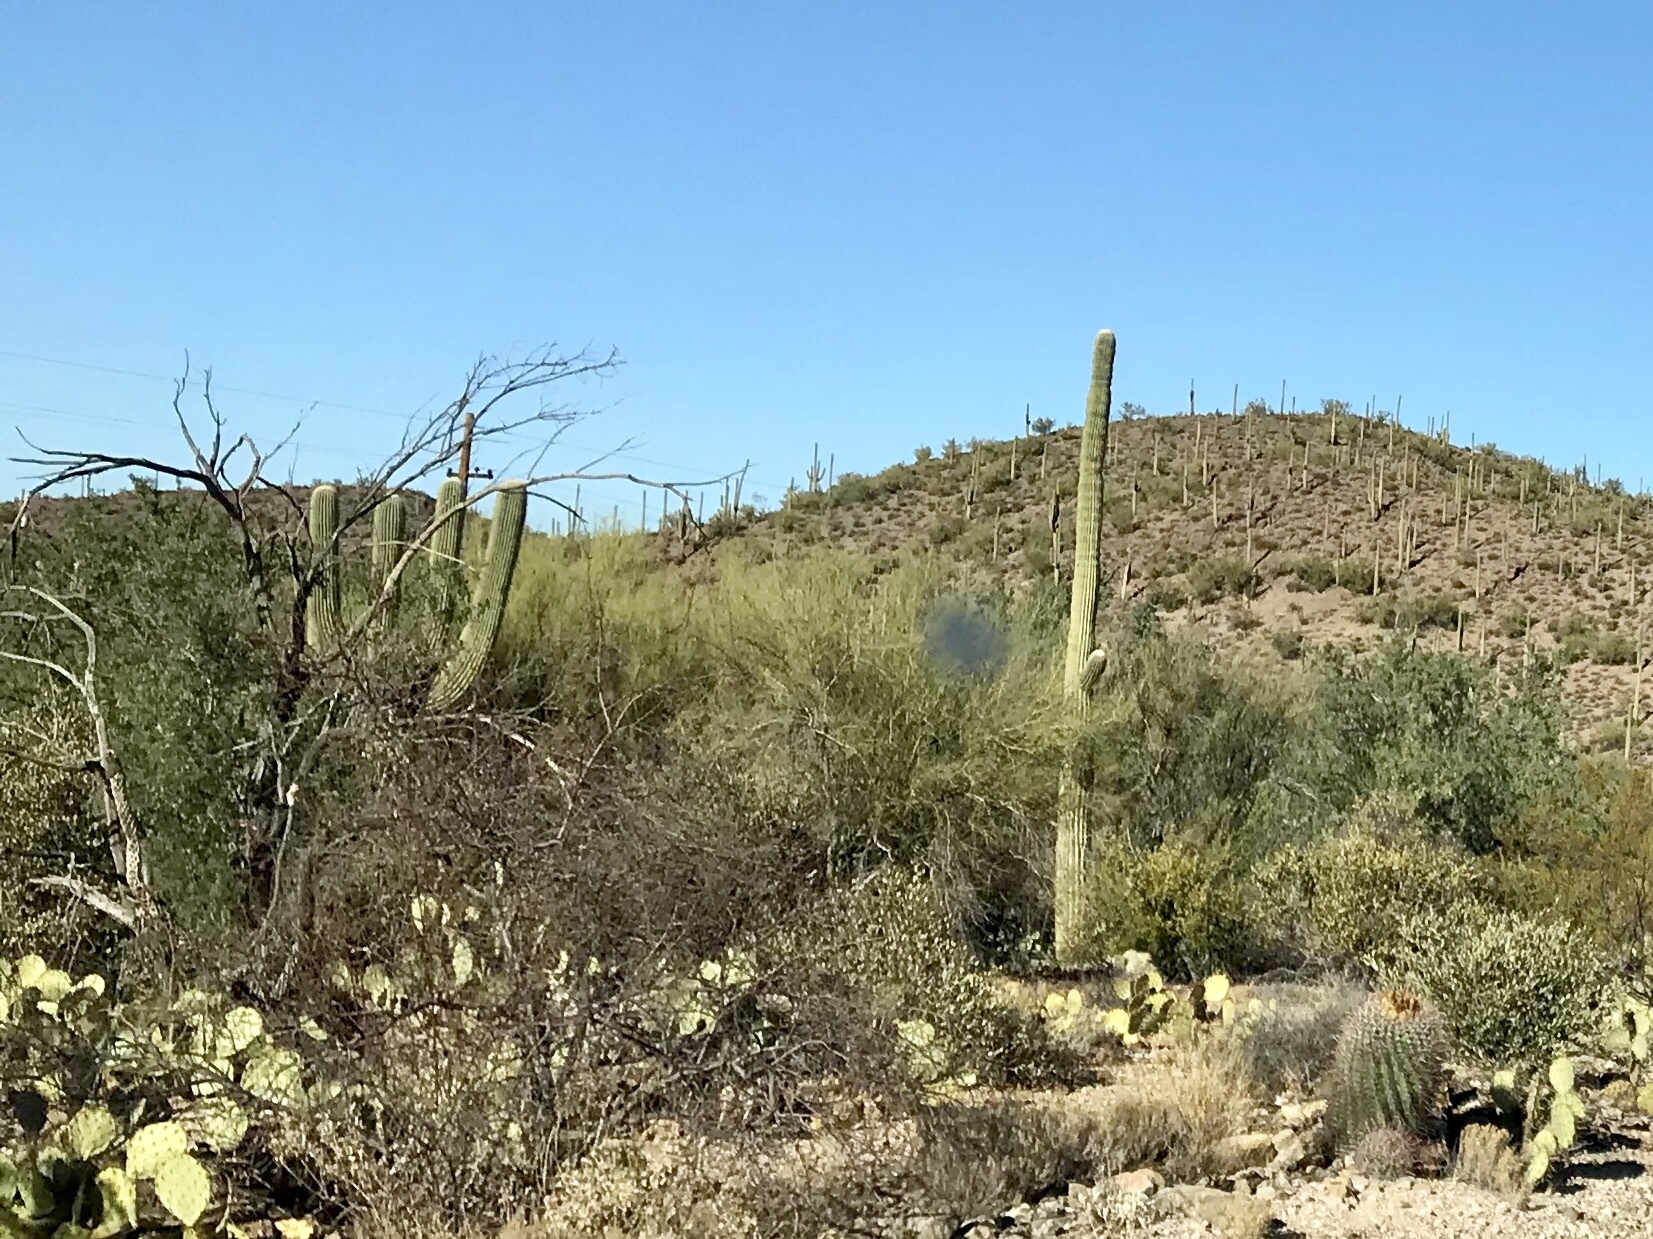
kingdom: Plantae
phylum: Tracheophyta
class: Magnoliopsida
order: Caryophyllales
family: Cactaceae
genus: Carnegiea
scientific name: Carnegiea gigantea
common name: Saguaro
